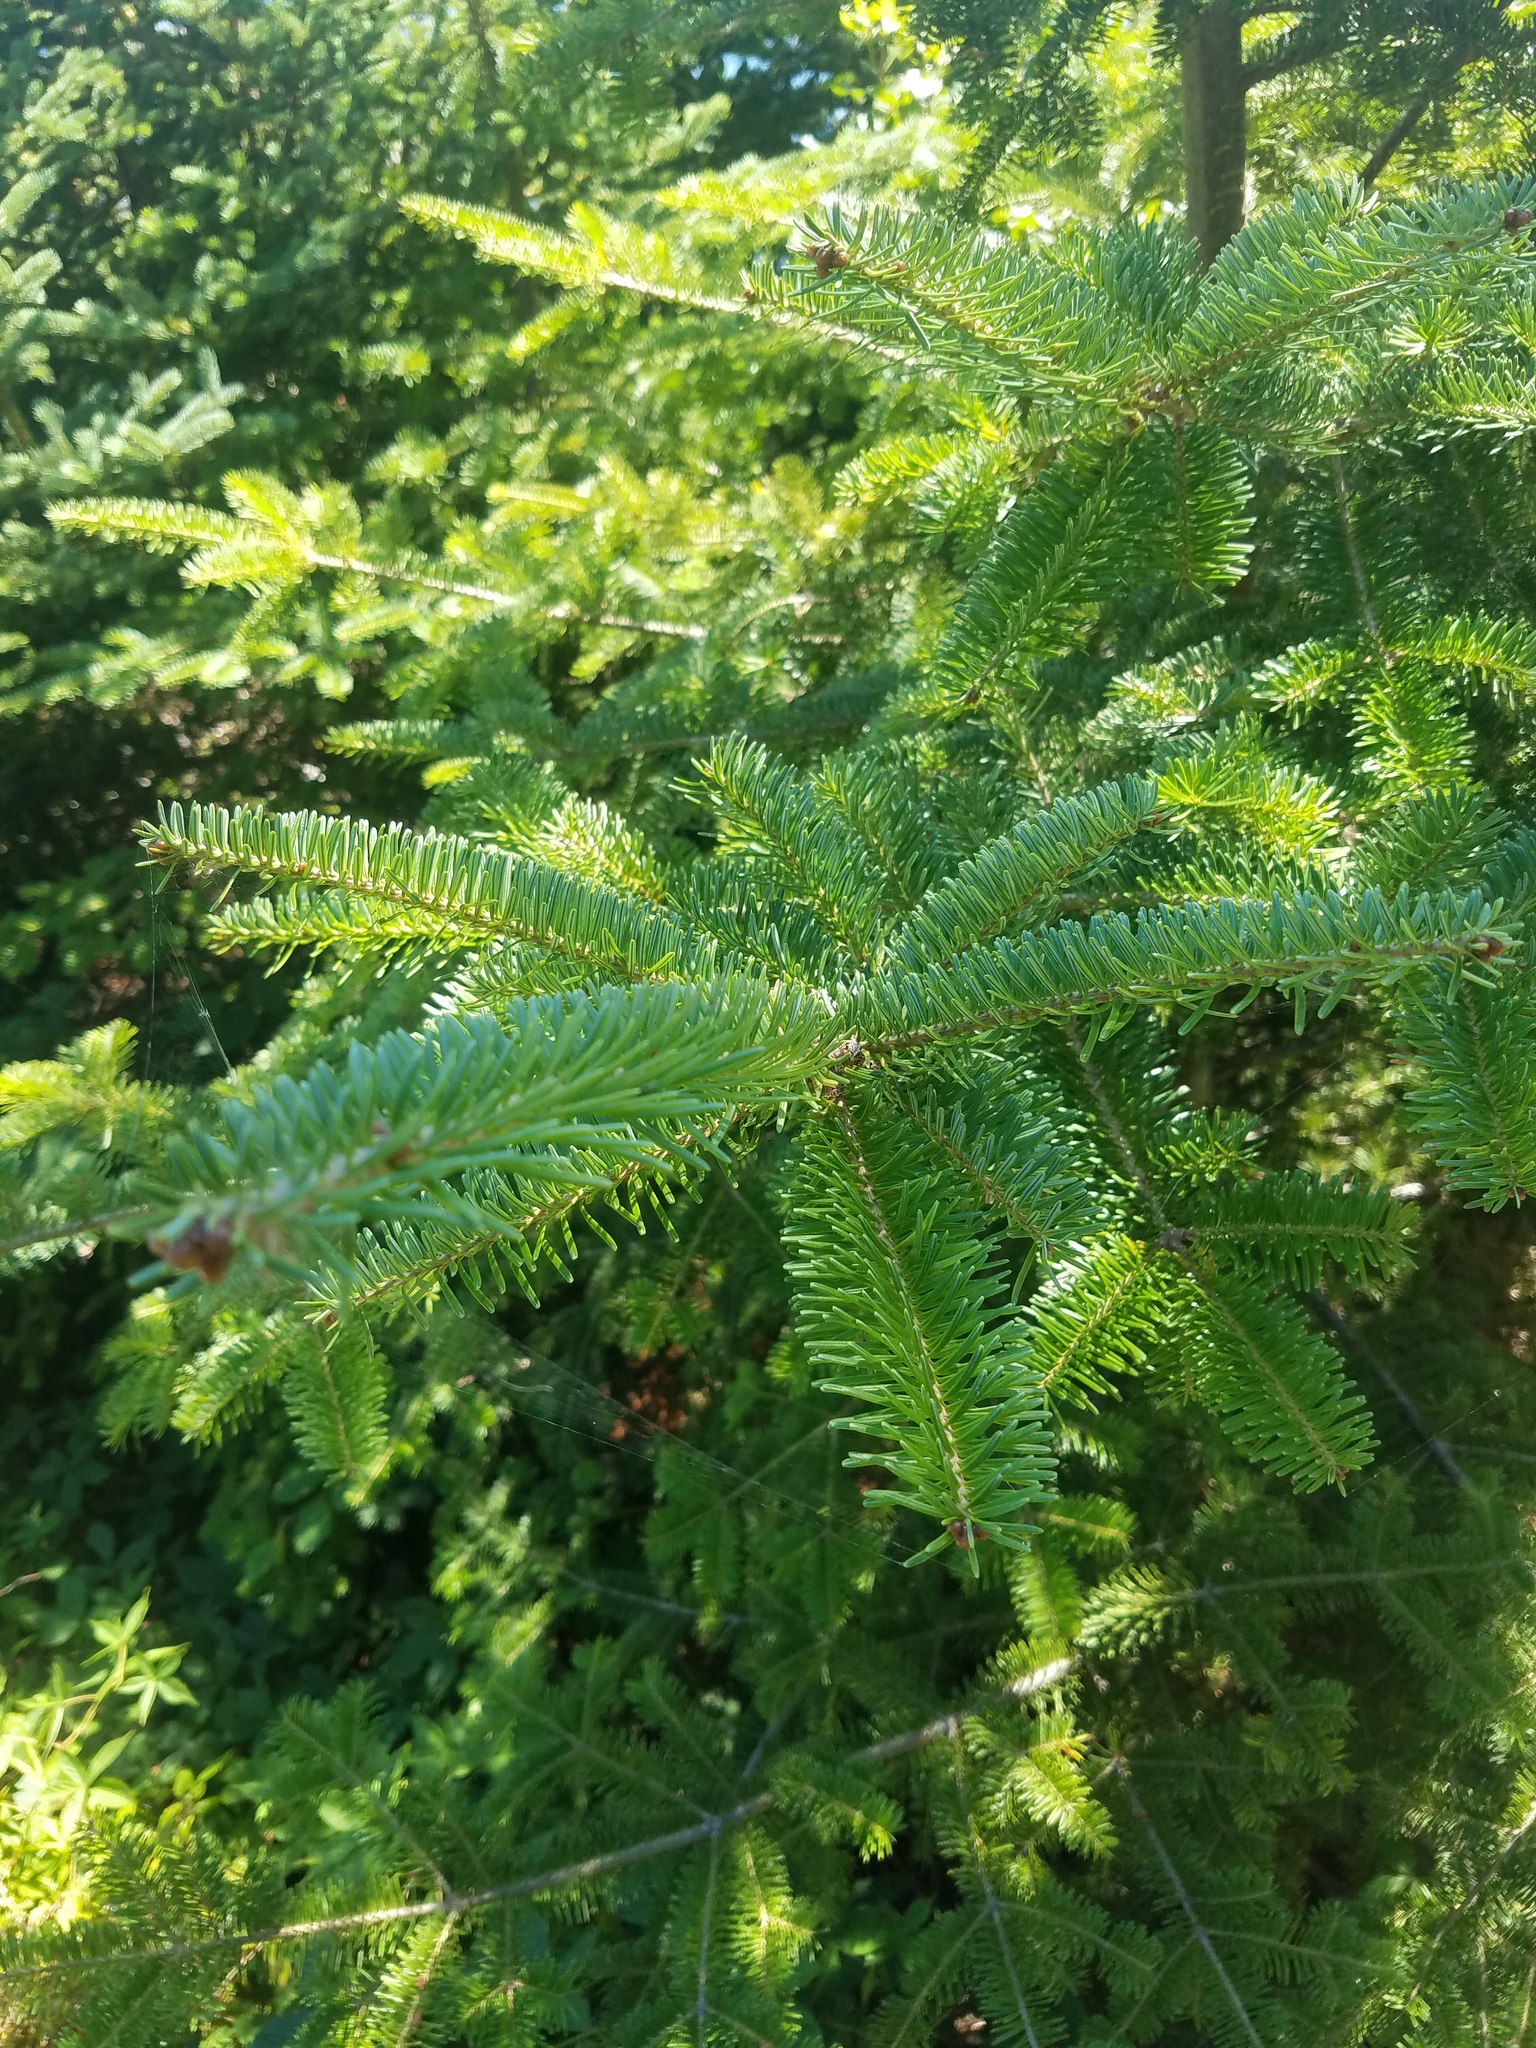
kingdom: Plantae
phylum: Tracheophyta
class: Pinopsida
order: Pinales
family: Pinaceae
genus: Abies
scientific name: Abies balsamea
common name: Balsam fir
